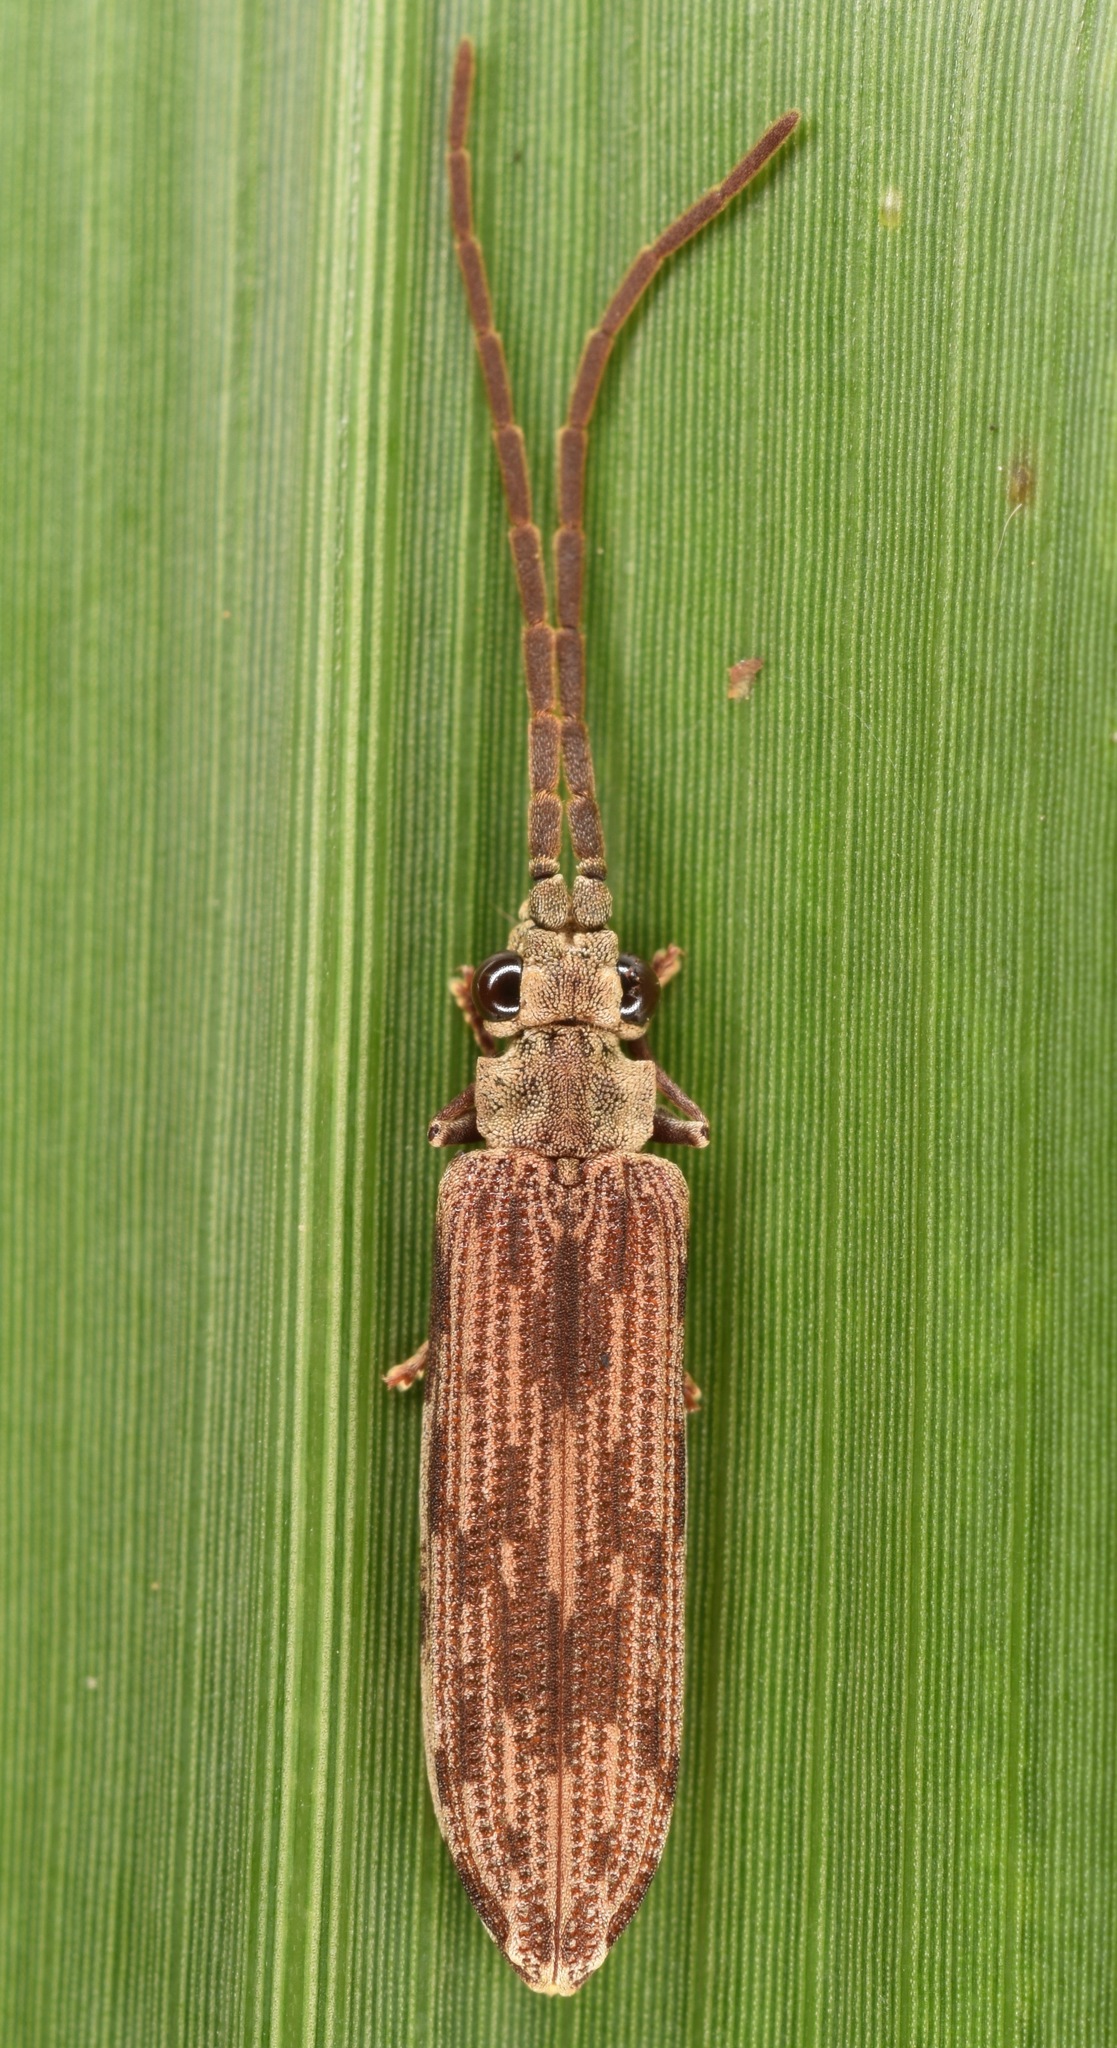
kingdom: Animalia
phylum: Arthropoda
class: Insecta
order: Coleoptera
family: Cupedidae
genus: Tenomerga
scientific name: Tenomerga cinerea
